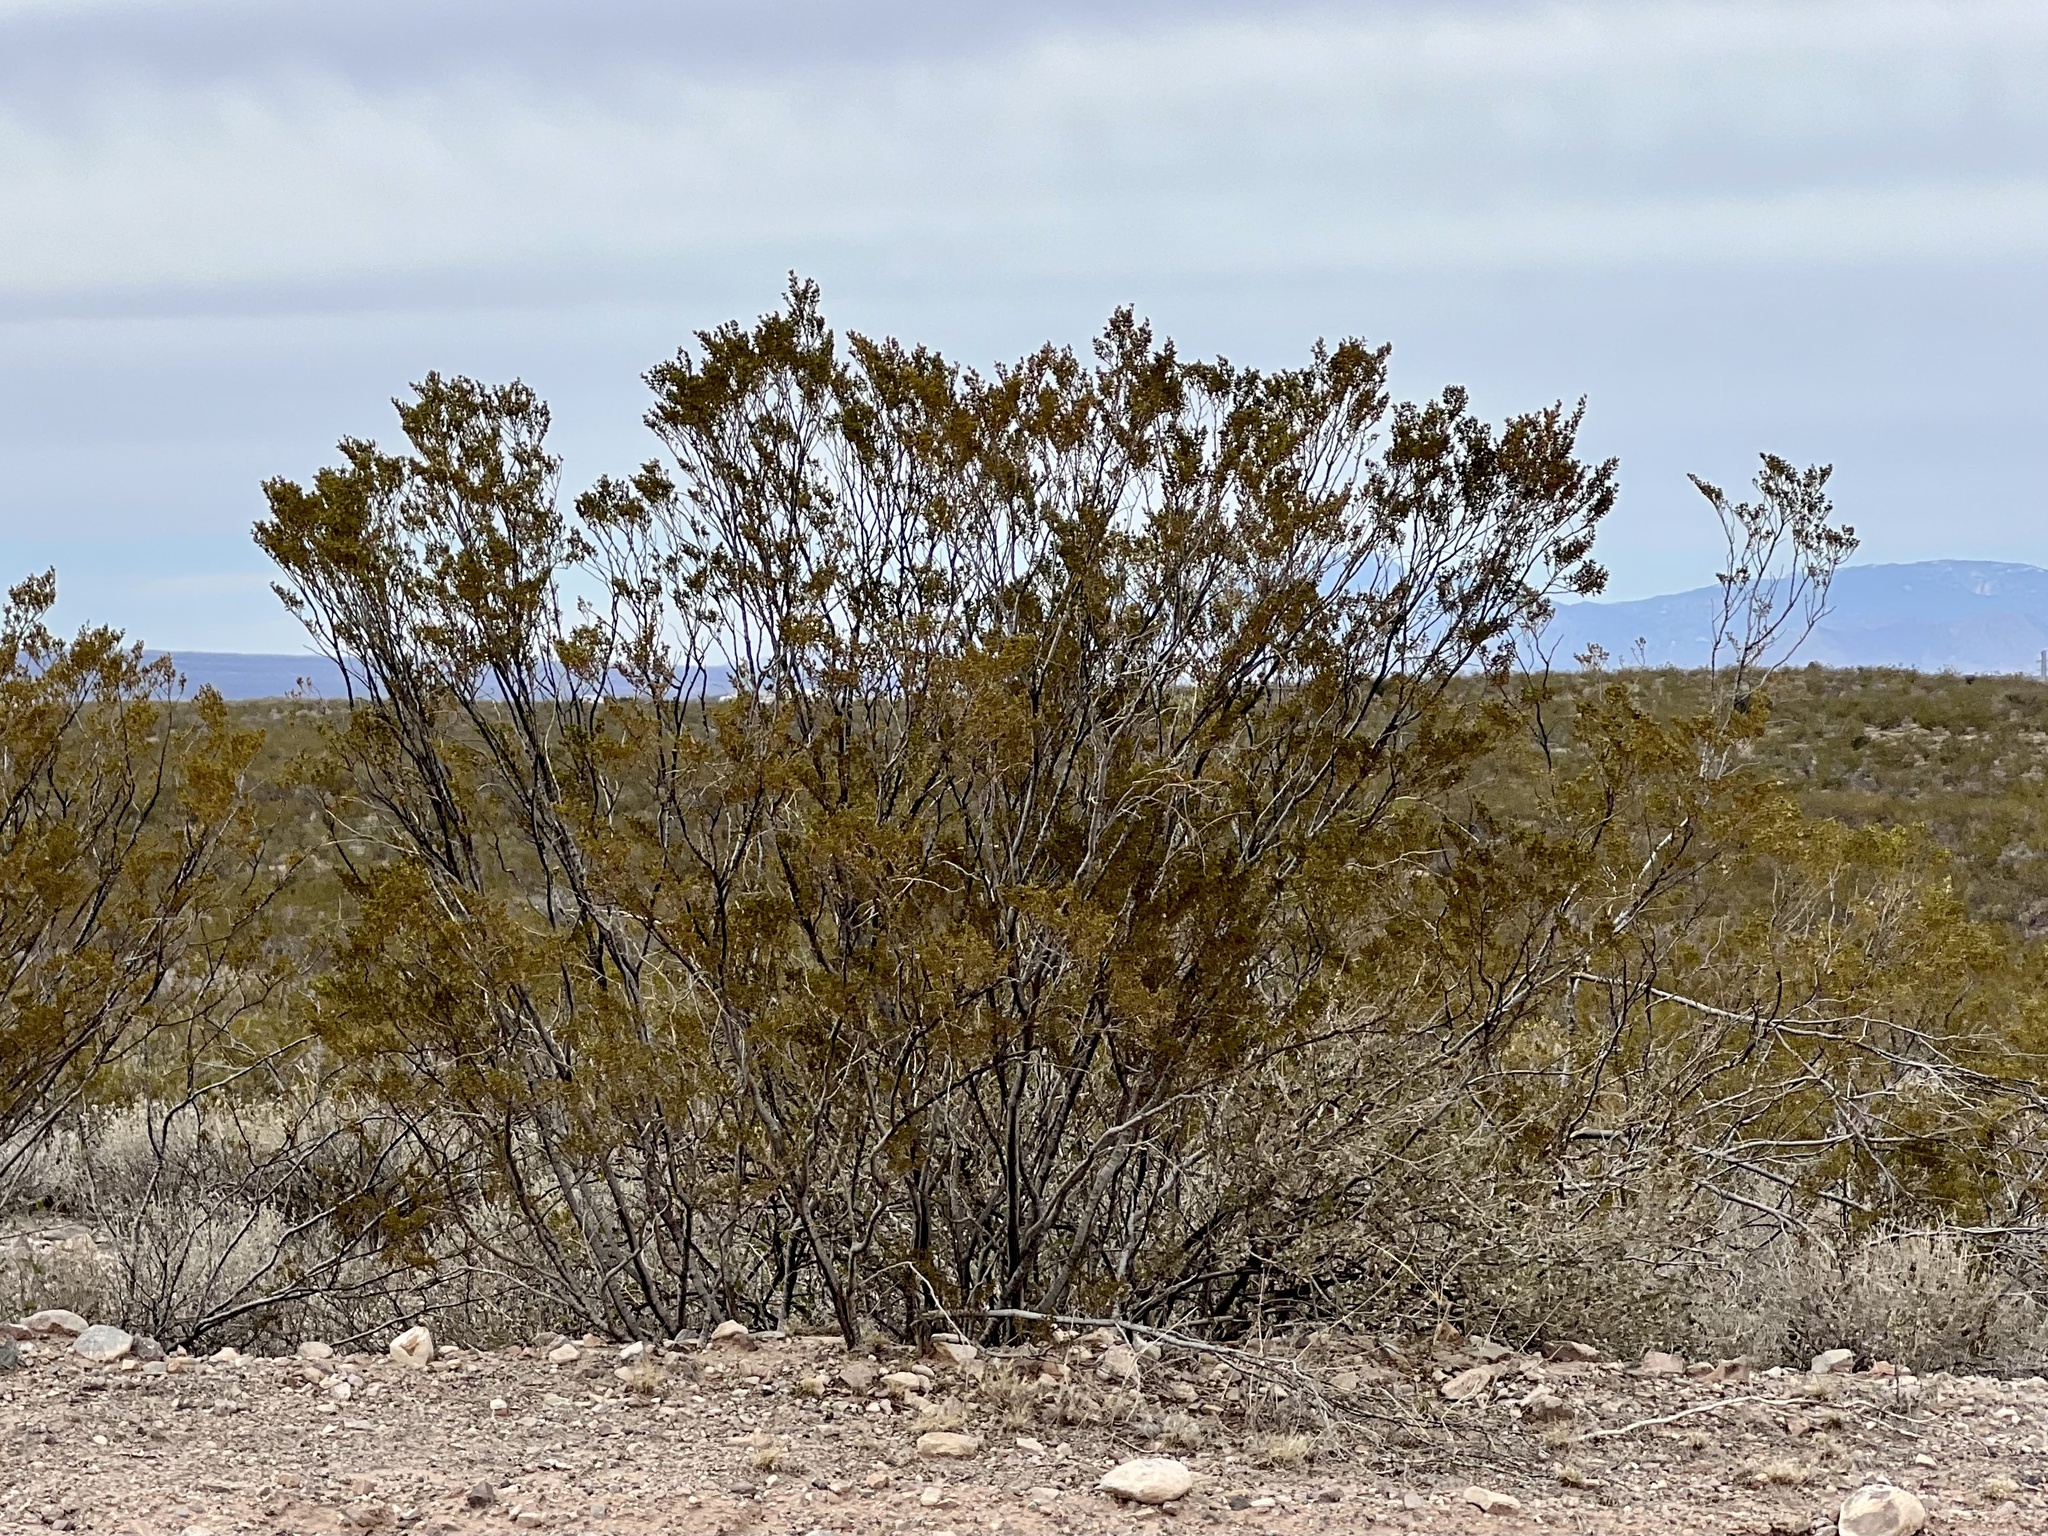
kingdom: Plantae
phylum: Tracheophyta
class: Magnoliopsida
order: Zygophyllales
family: Zygophyllaceae
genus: Larrea
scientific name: Larrea tridentata
